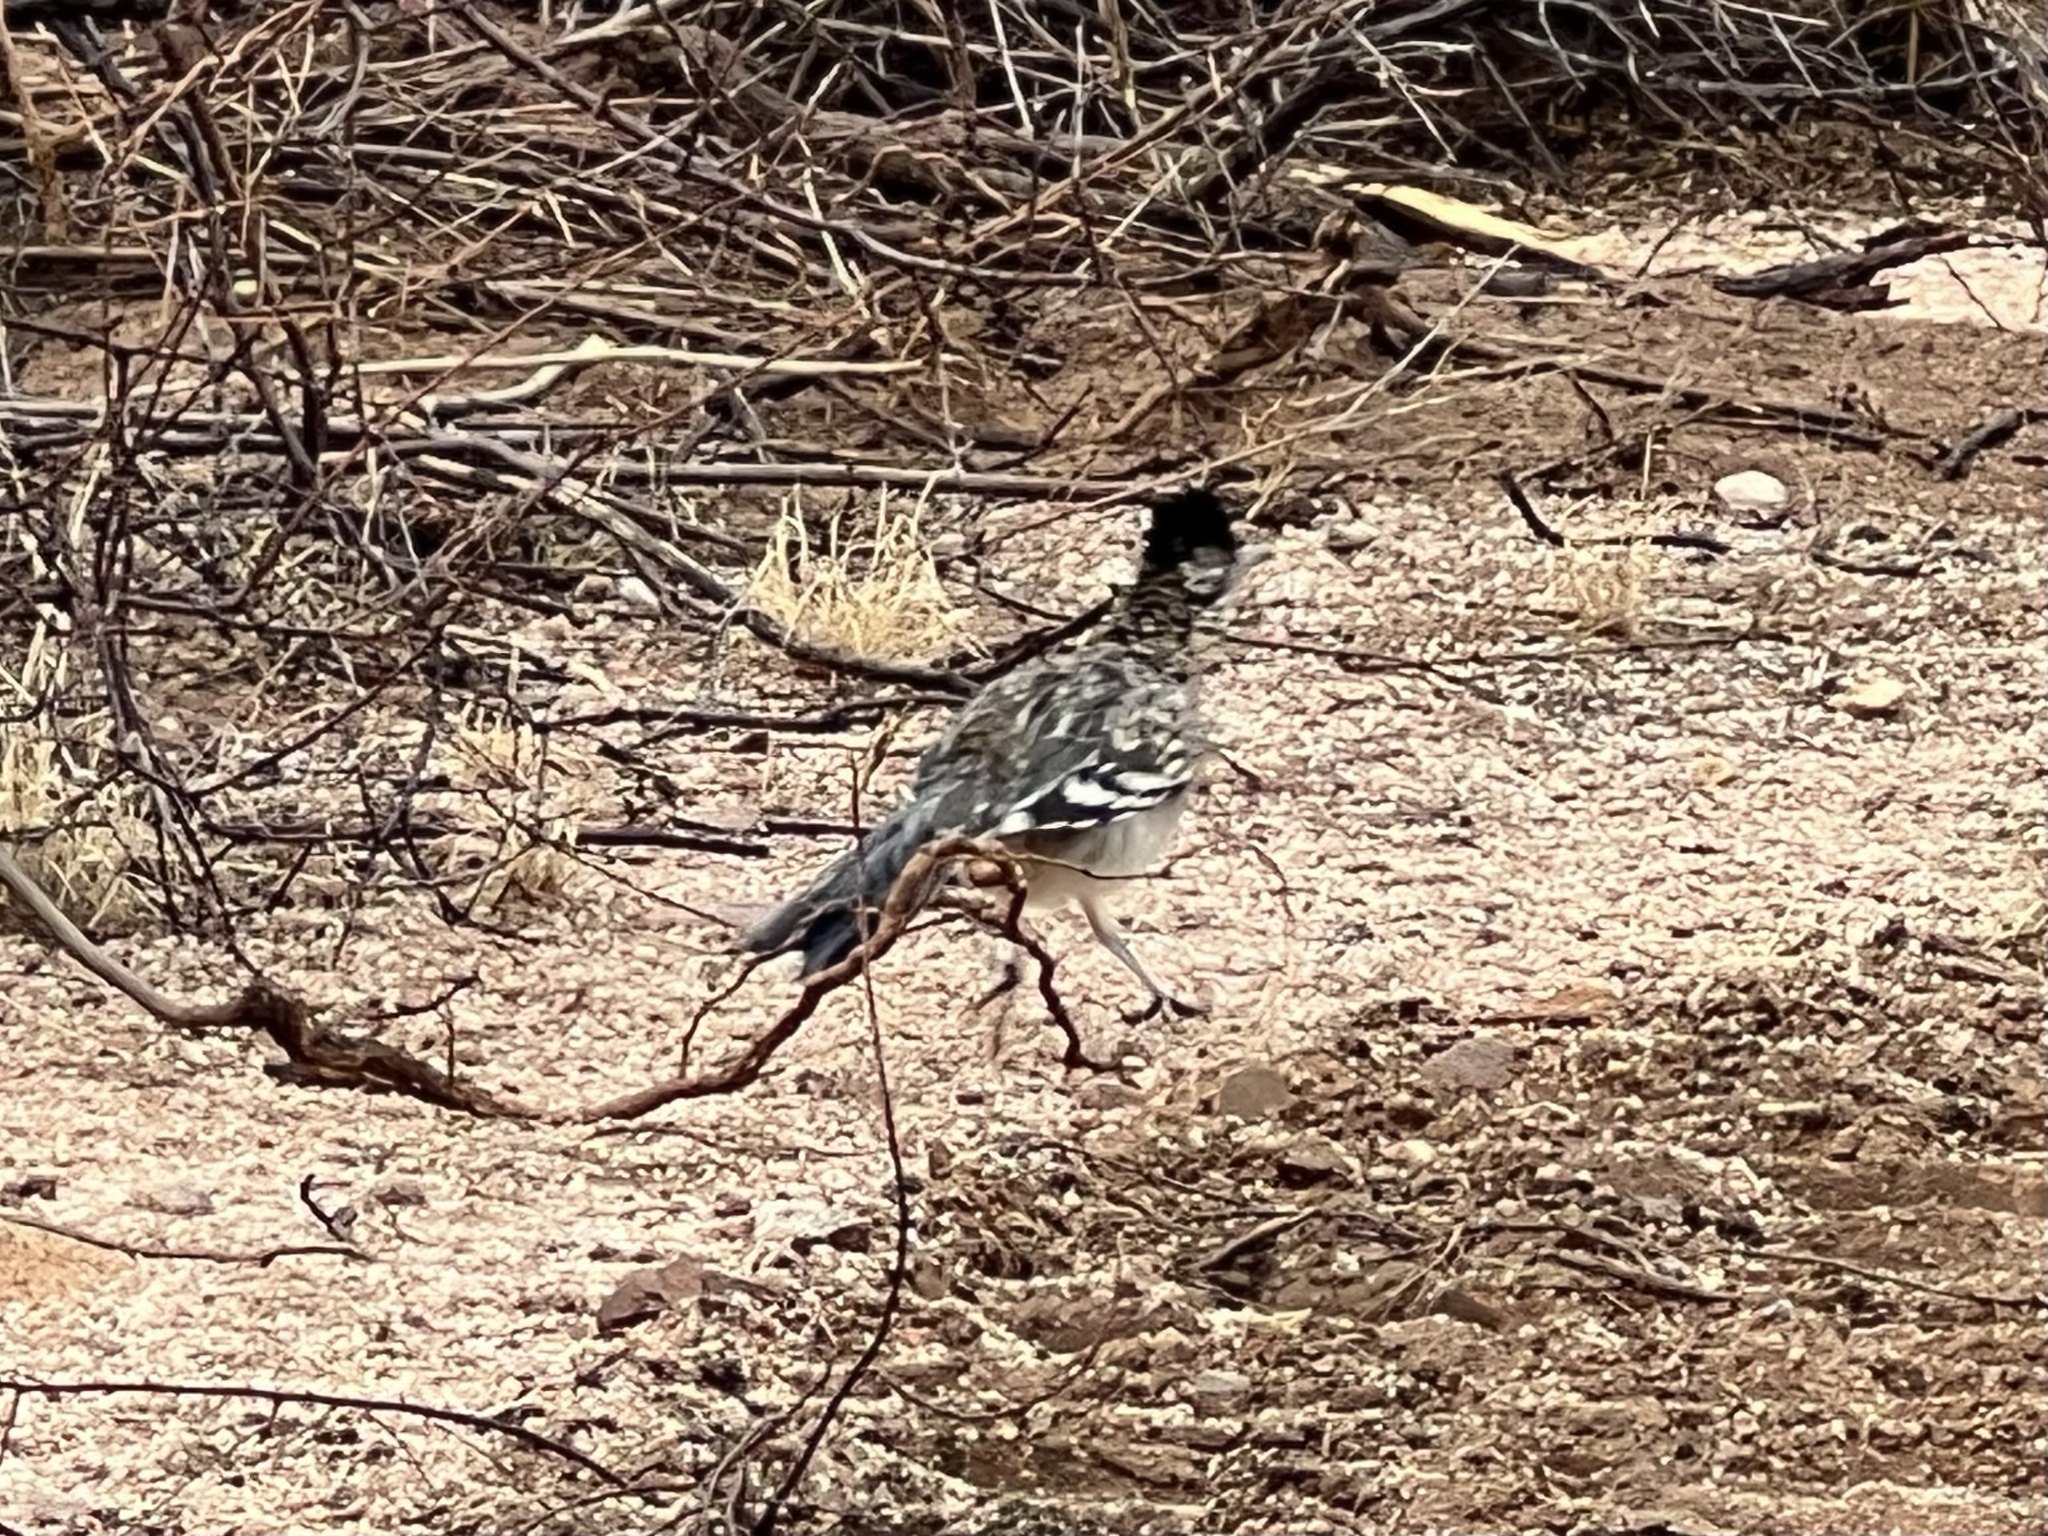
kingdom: Animalia
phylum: Chordata
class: Aves
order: Cuculiformes
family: Cuculidae
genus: Geococcyx
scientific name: Geococcyx californianus
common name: Greater roadrunner
